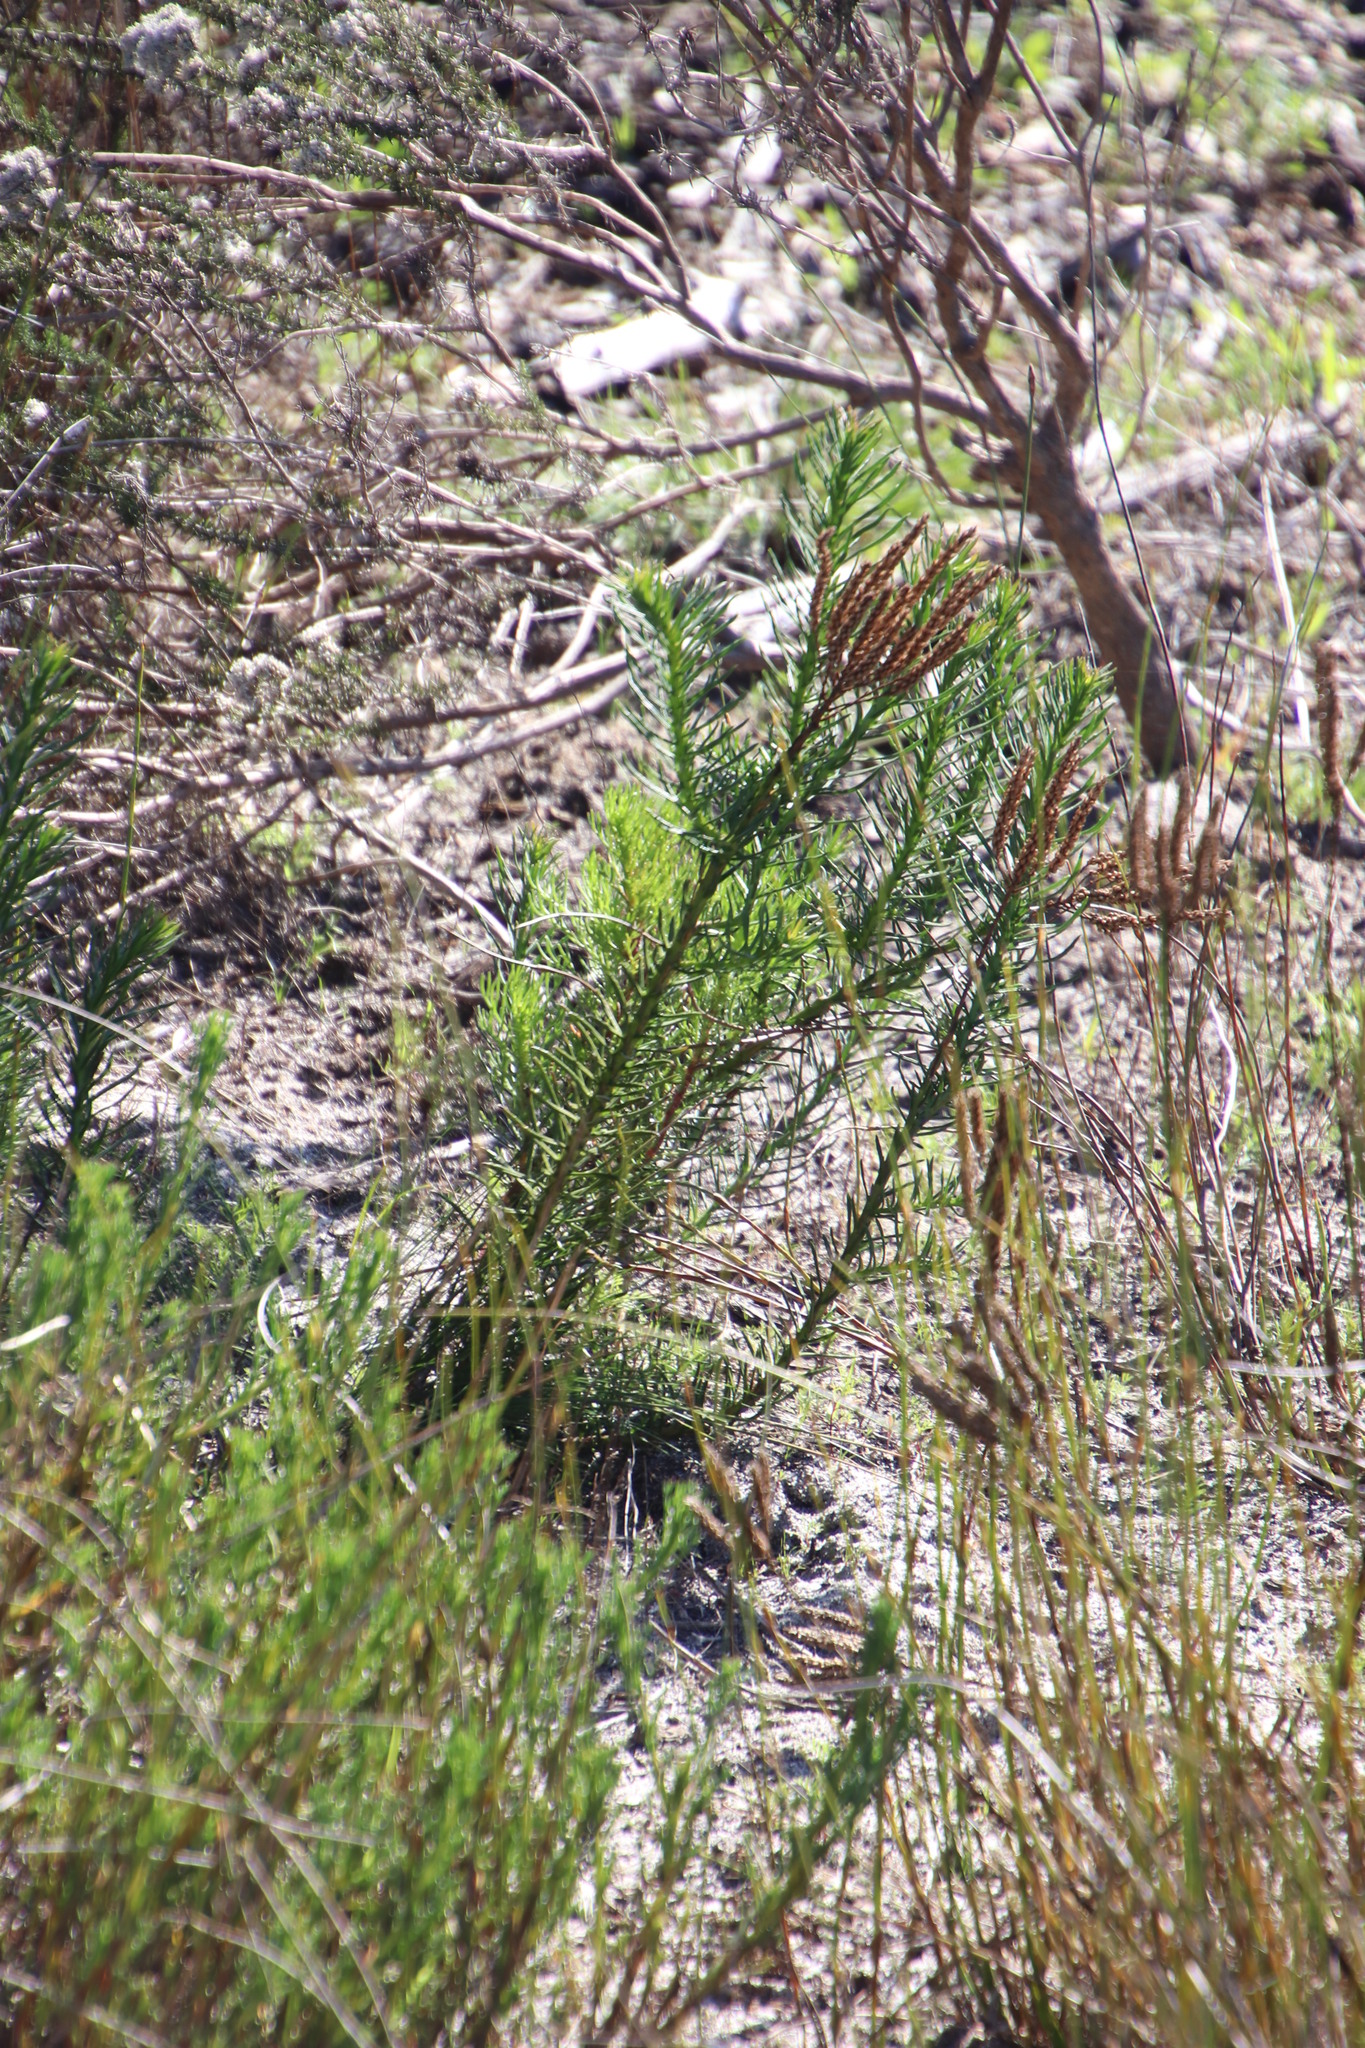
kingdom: Plantae
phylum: Tracheophyta
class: Magnoliopsida
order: Lamiales
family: Scrophulariaceae
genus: Pseudoselago
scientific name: Pseudoselago spuria
